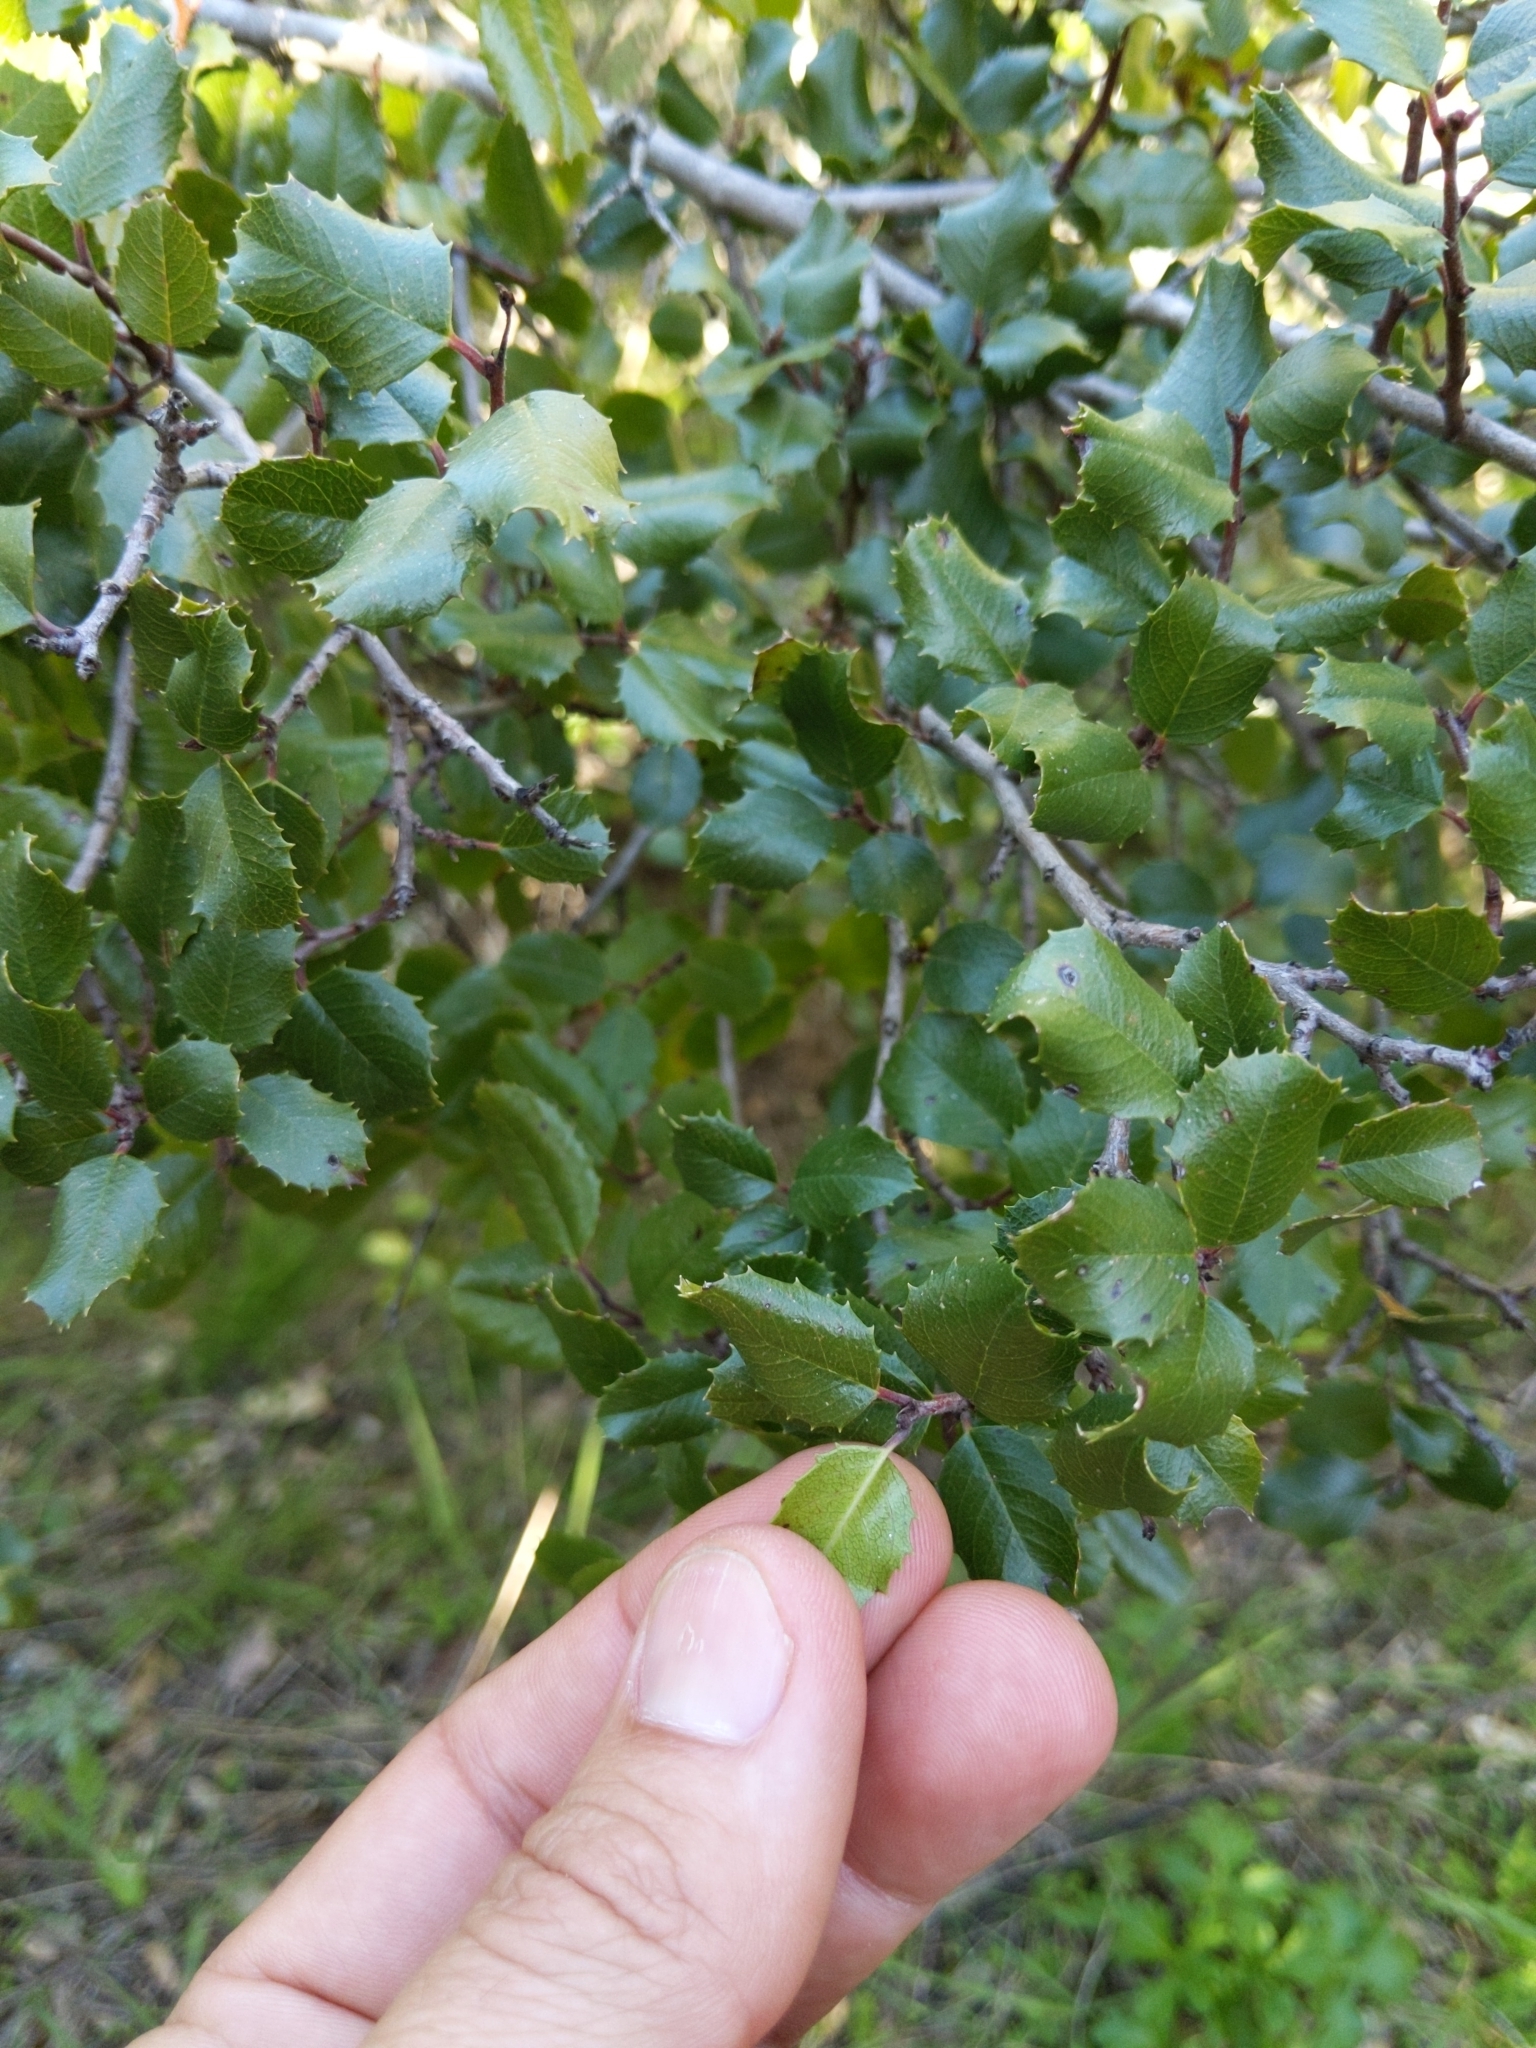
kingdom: Plantae
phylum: Tracheophyta
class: Magnoliopsida
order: Rosales
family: Rhamnaceae
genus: Endotropis
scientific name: Endotropis crocea
